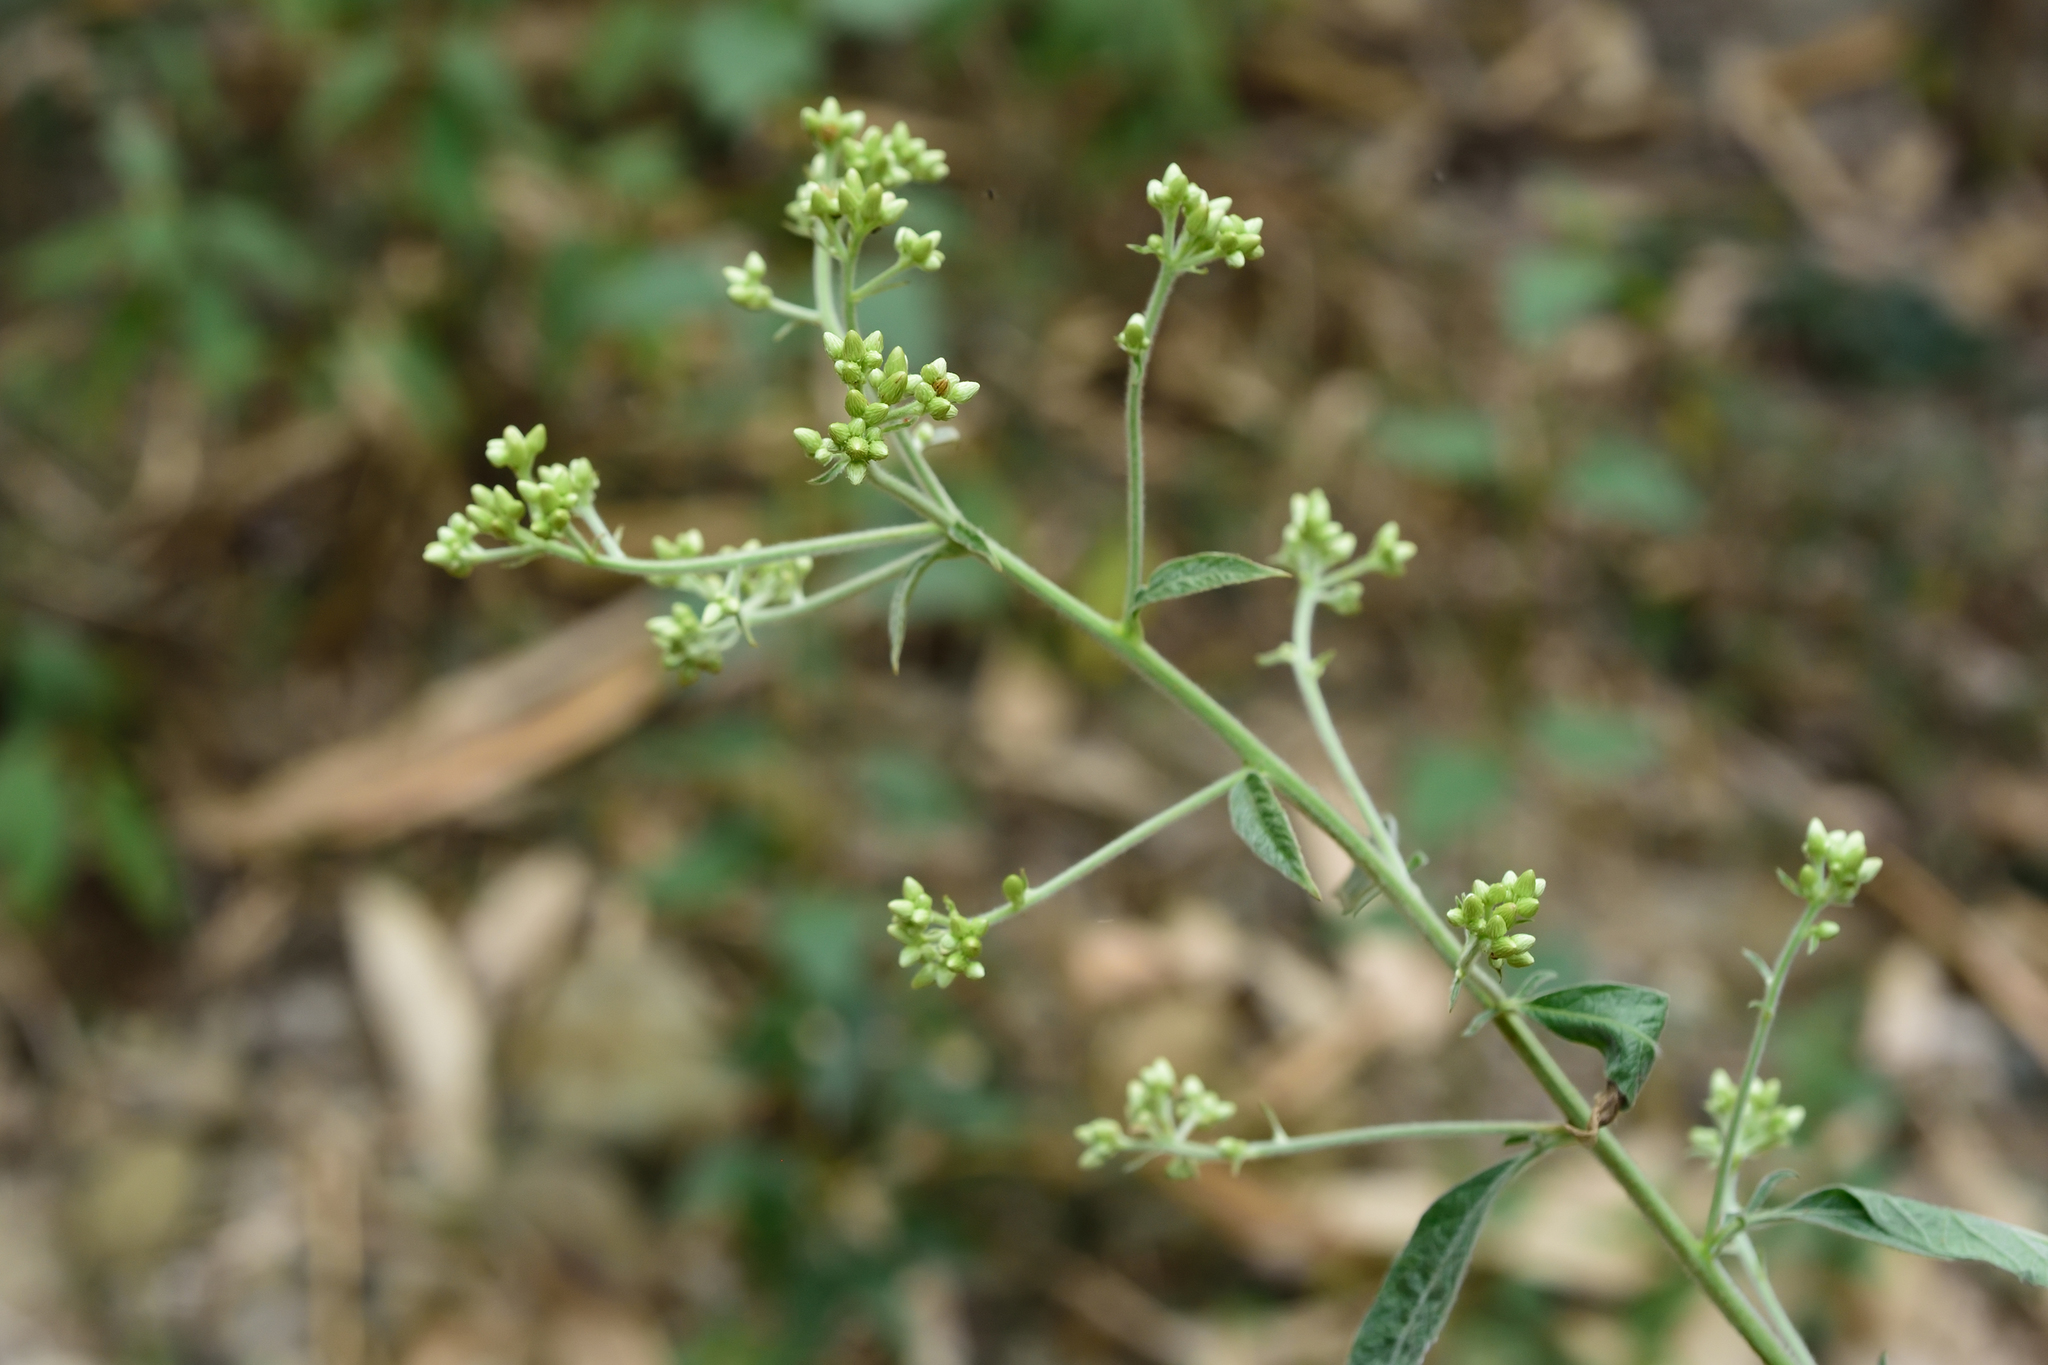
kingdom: Plantae
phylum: Tracheophyta
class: Magnoliopsida
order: Asterales
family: Asteraceae
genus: Blumea
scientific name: Blumea balsamifera
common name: Ngai camphor
